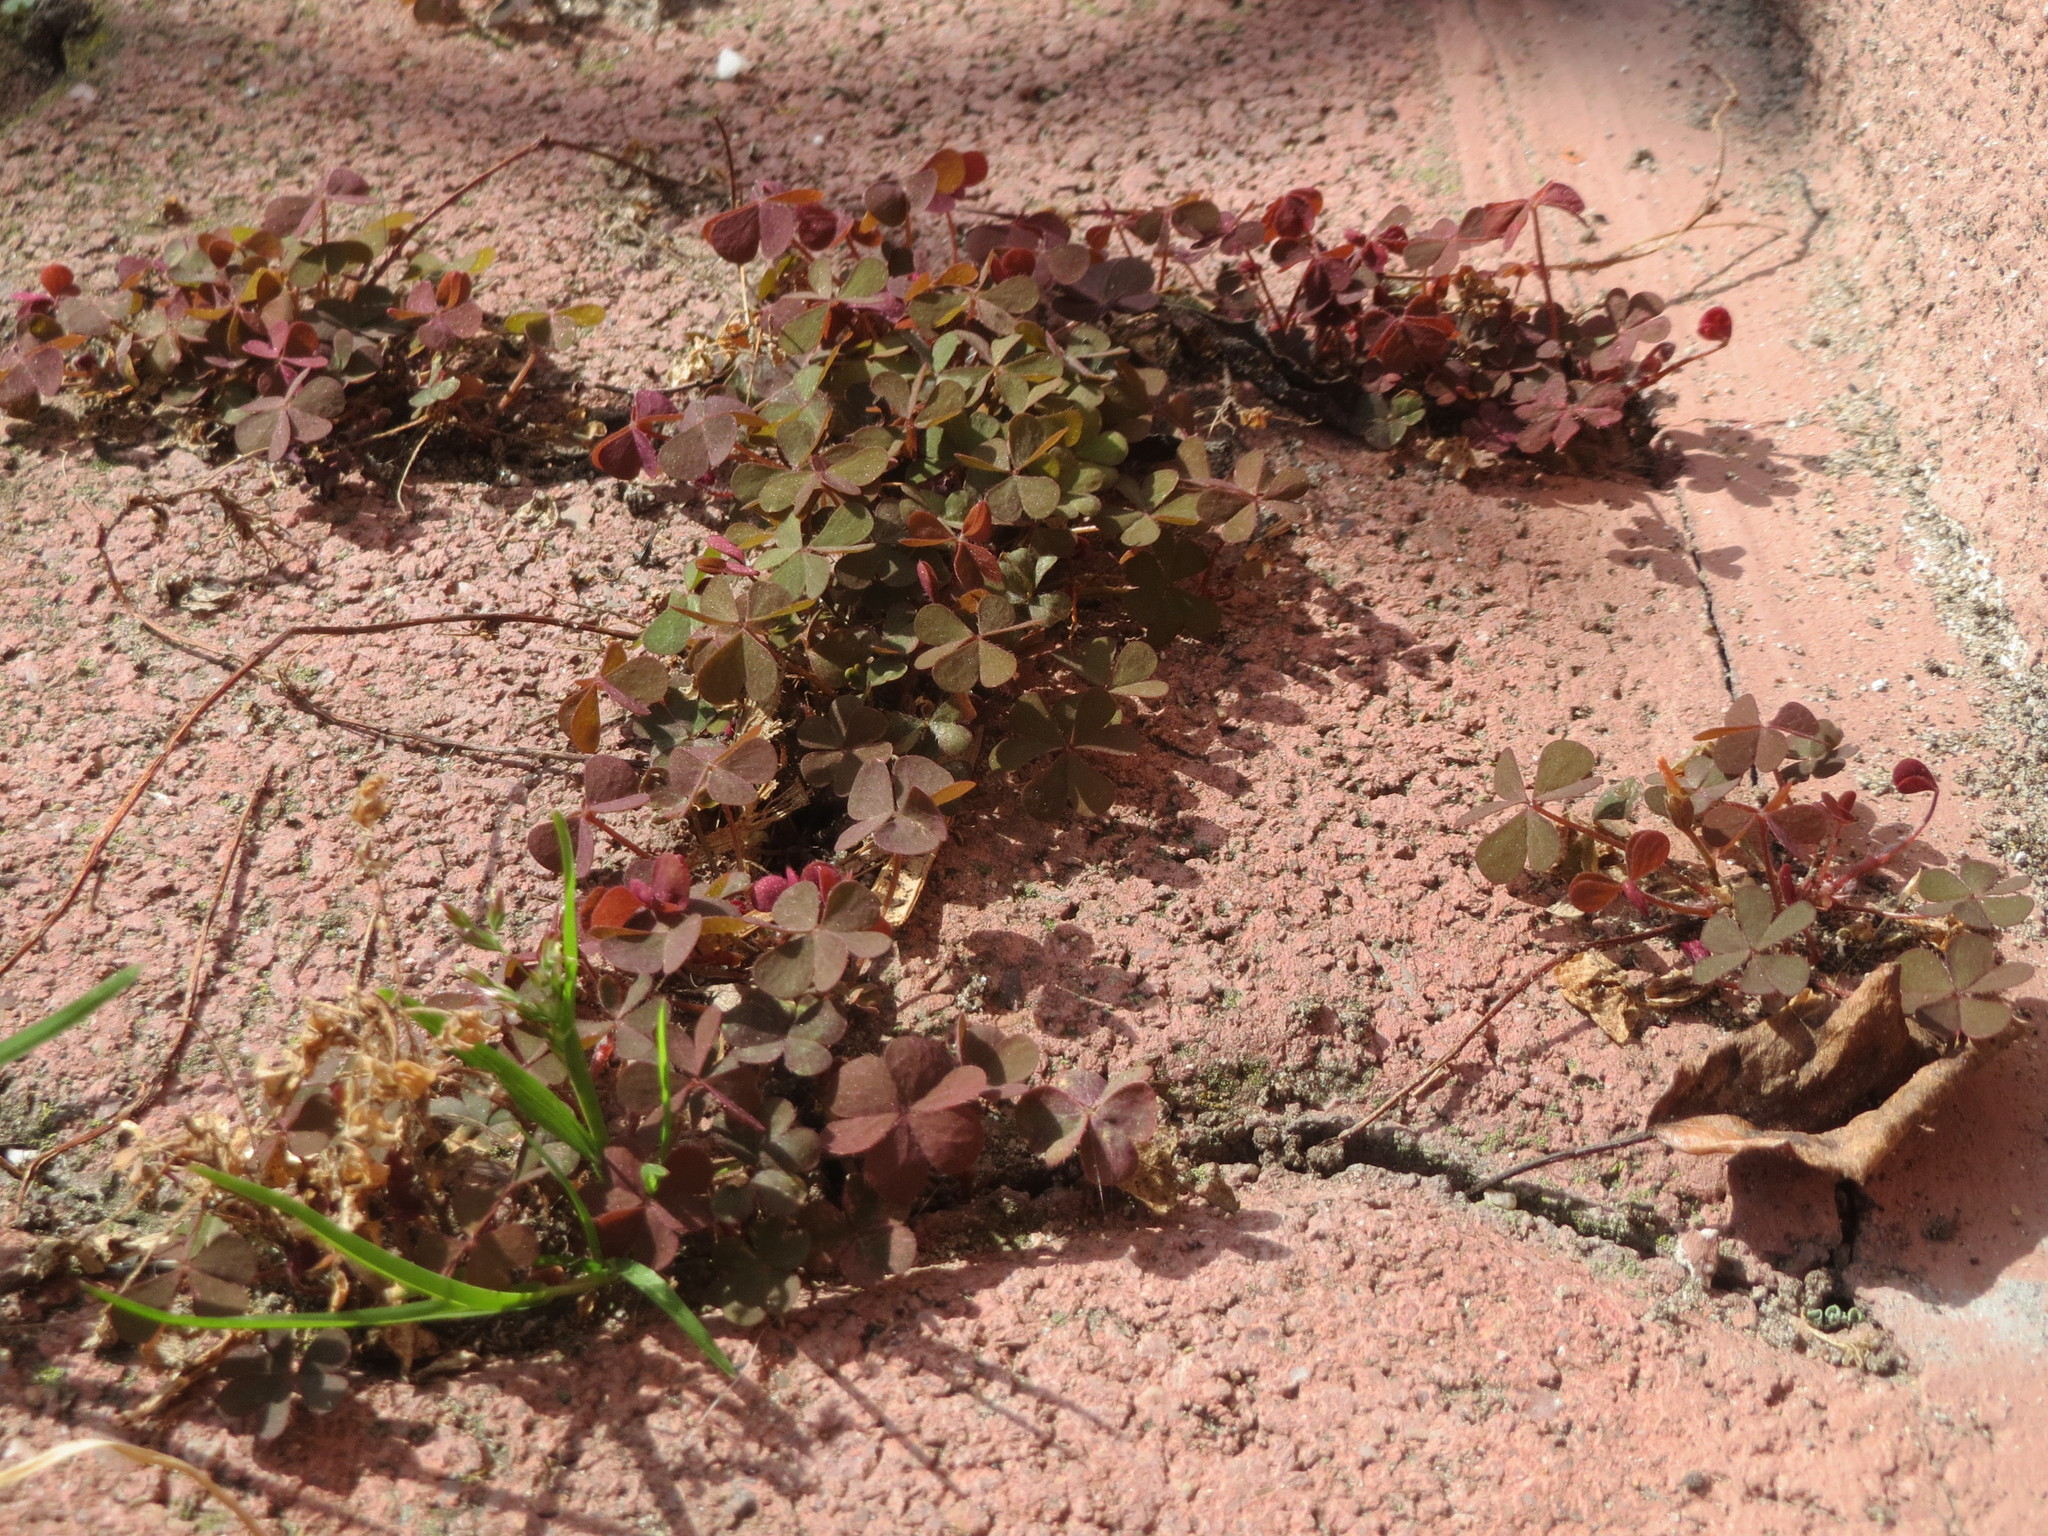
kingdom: Plantae
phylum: Tracheophyta
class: Magnoliopsida
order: Oxalidales
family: Oxalidaceae
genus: Oxalis
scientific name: Oxalis corniculata
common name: Procumbent yellow-sorrel
